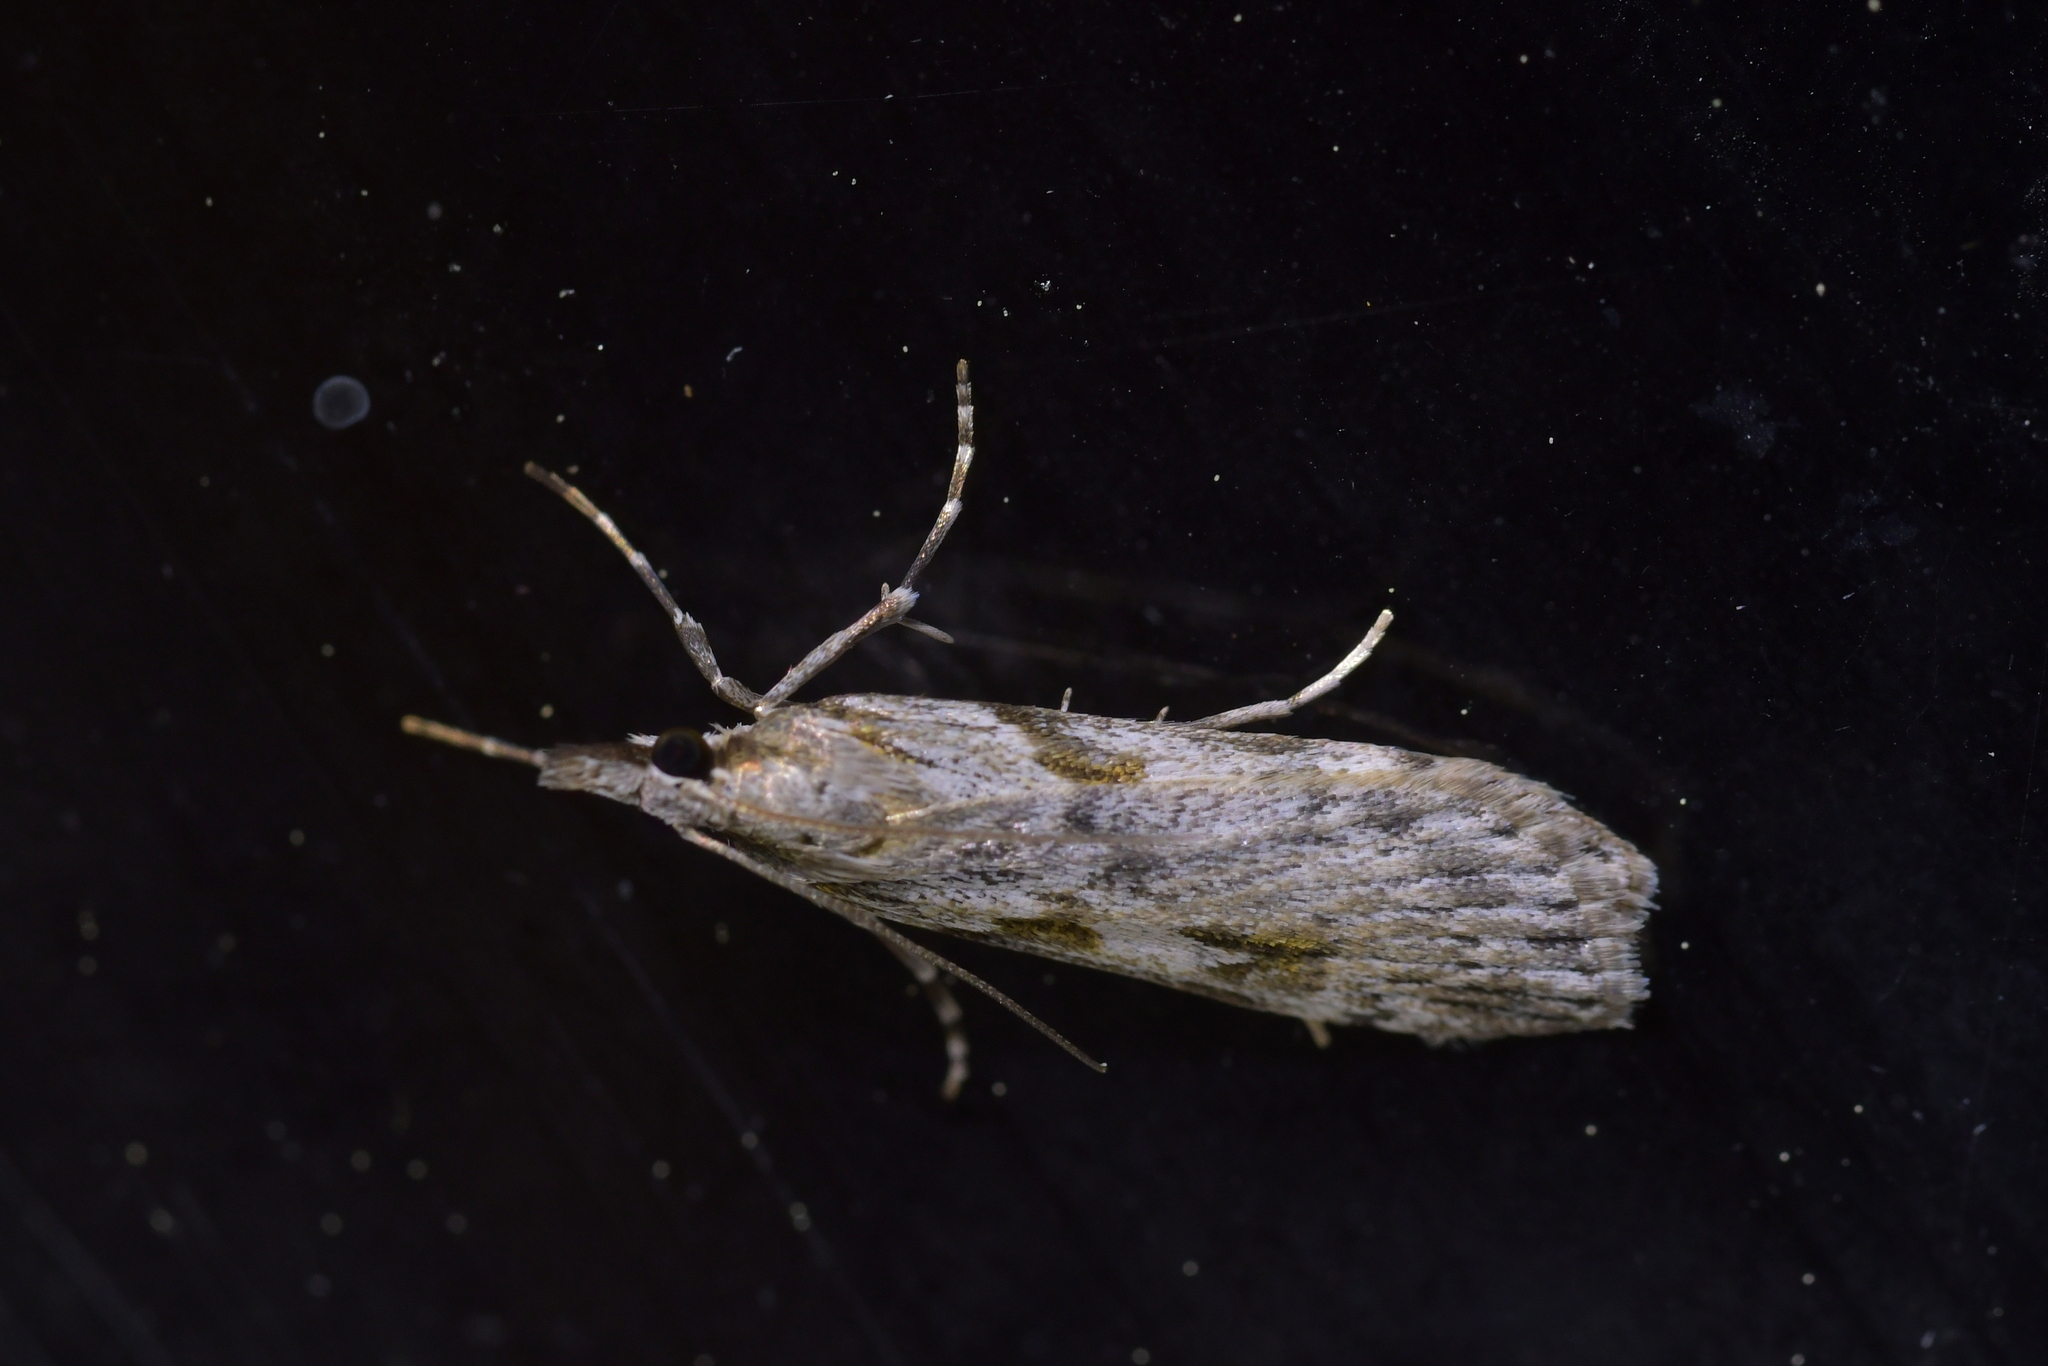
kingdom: Animalia
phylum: Arthropoda
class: Insecta
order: Lepidoptera
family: Crambidae
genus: Scoparia
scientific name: Scoparia halopis
